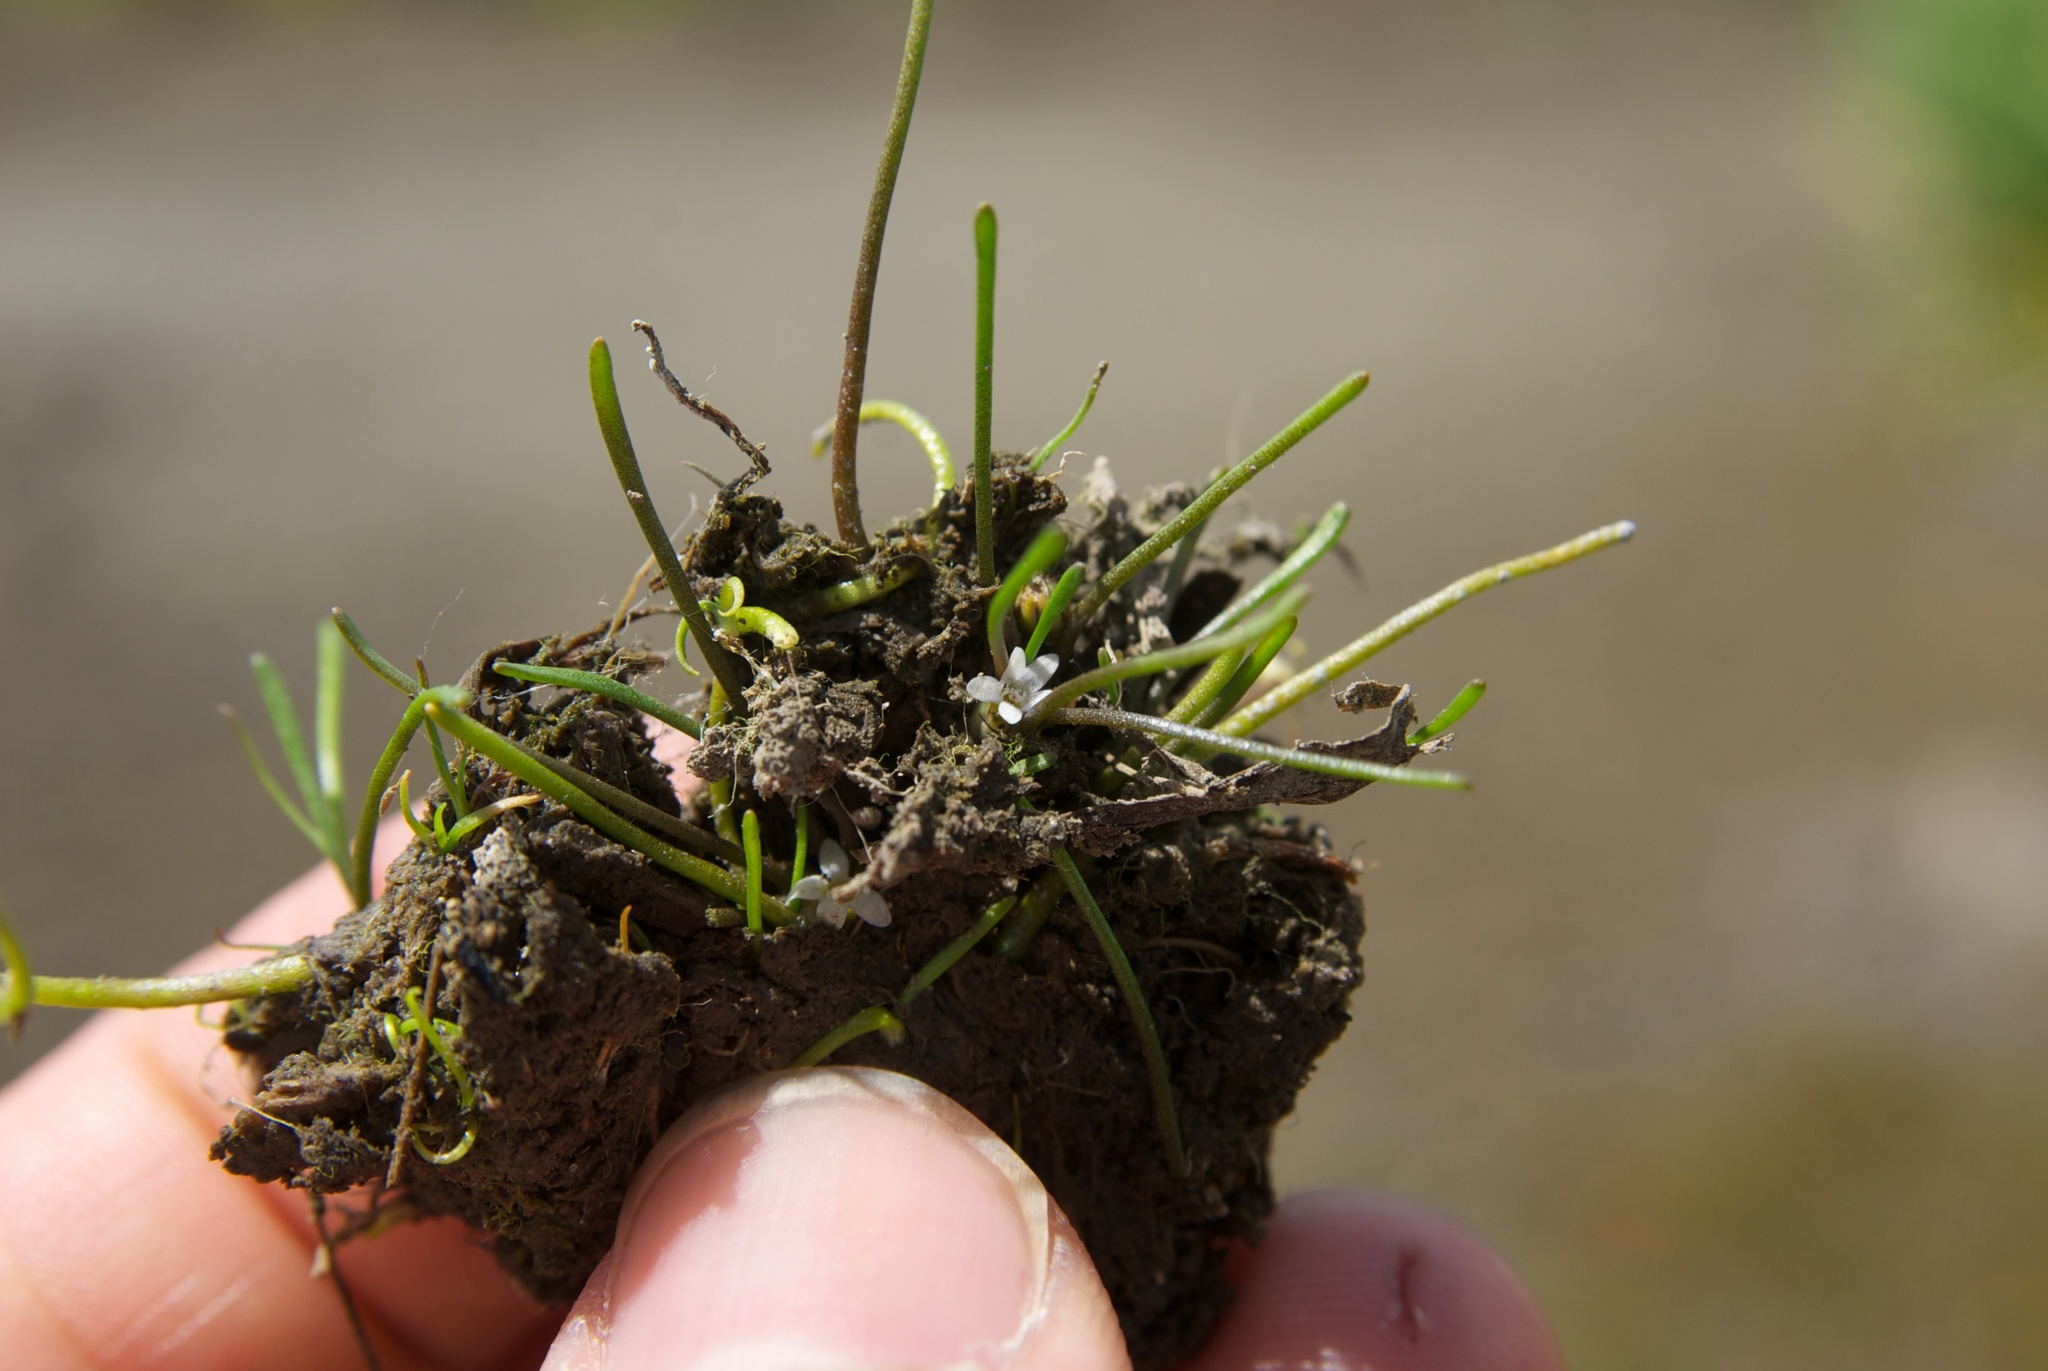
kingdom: Plantae
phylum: Tracheophyta
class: Magnoliopsida
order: Lamiales
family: Scrophulariaceae
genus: Limosella
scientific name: Limosella australis
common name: Welsh mudwort
